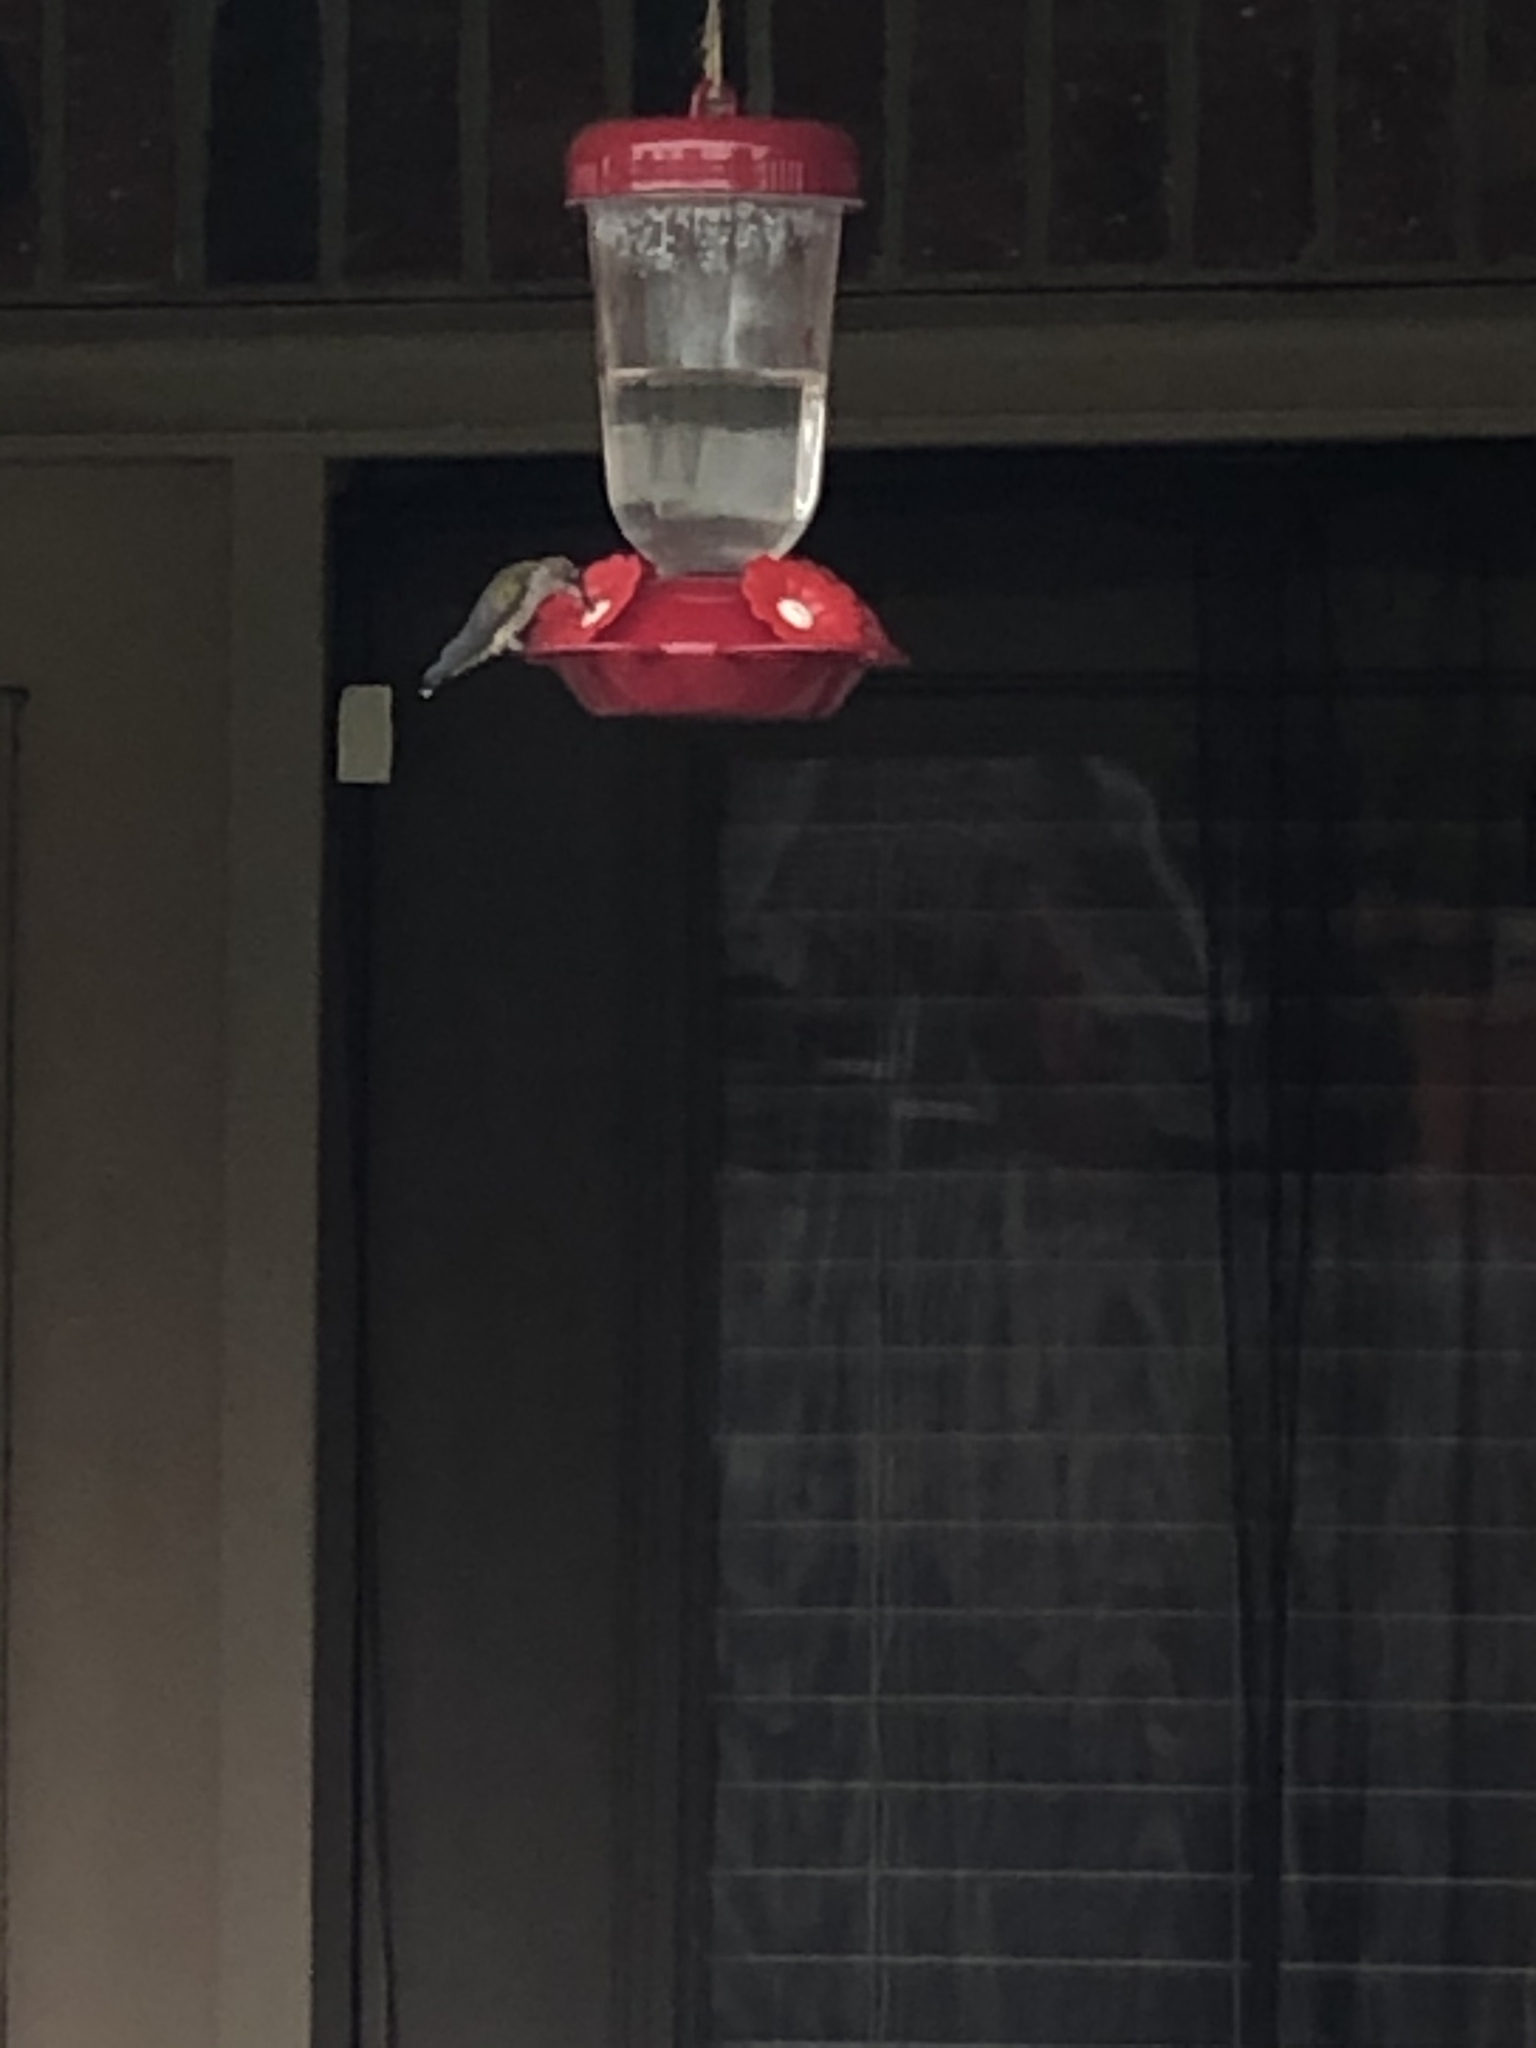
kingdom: Animalia
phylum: Chordata
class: Aves
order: Apodiformes
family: Trochilidae
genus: Archilochus
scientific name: Archilochus colubris
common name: Ruby-throated hummingbird
